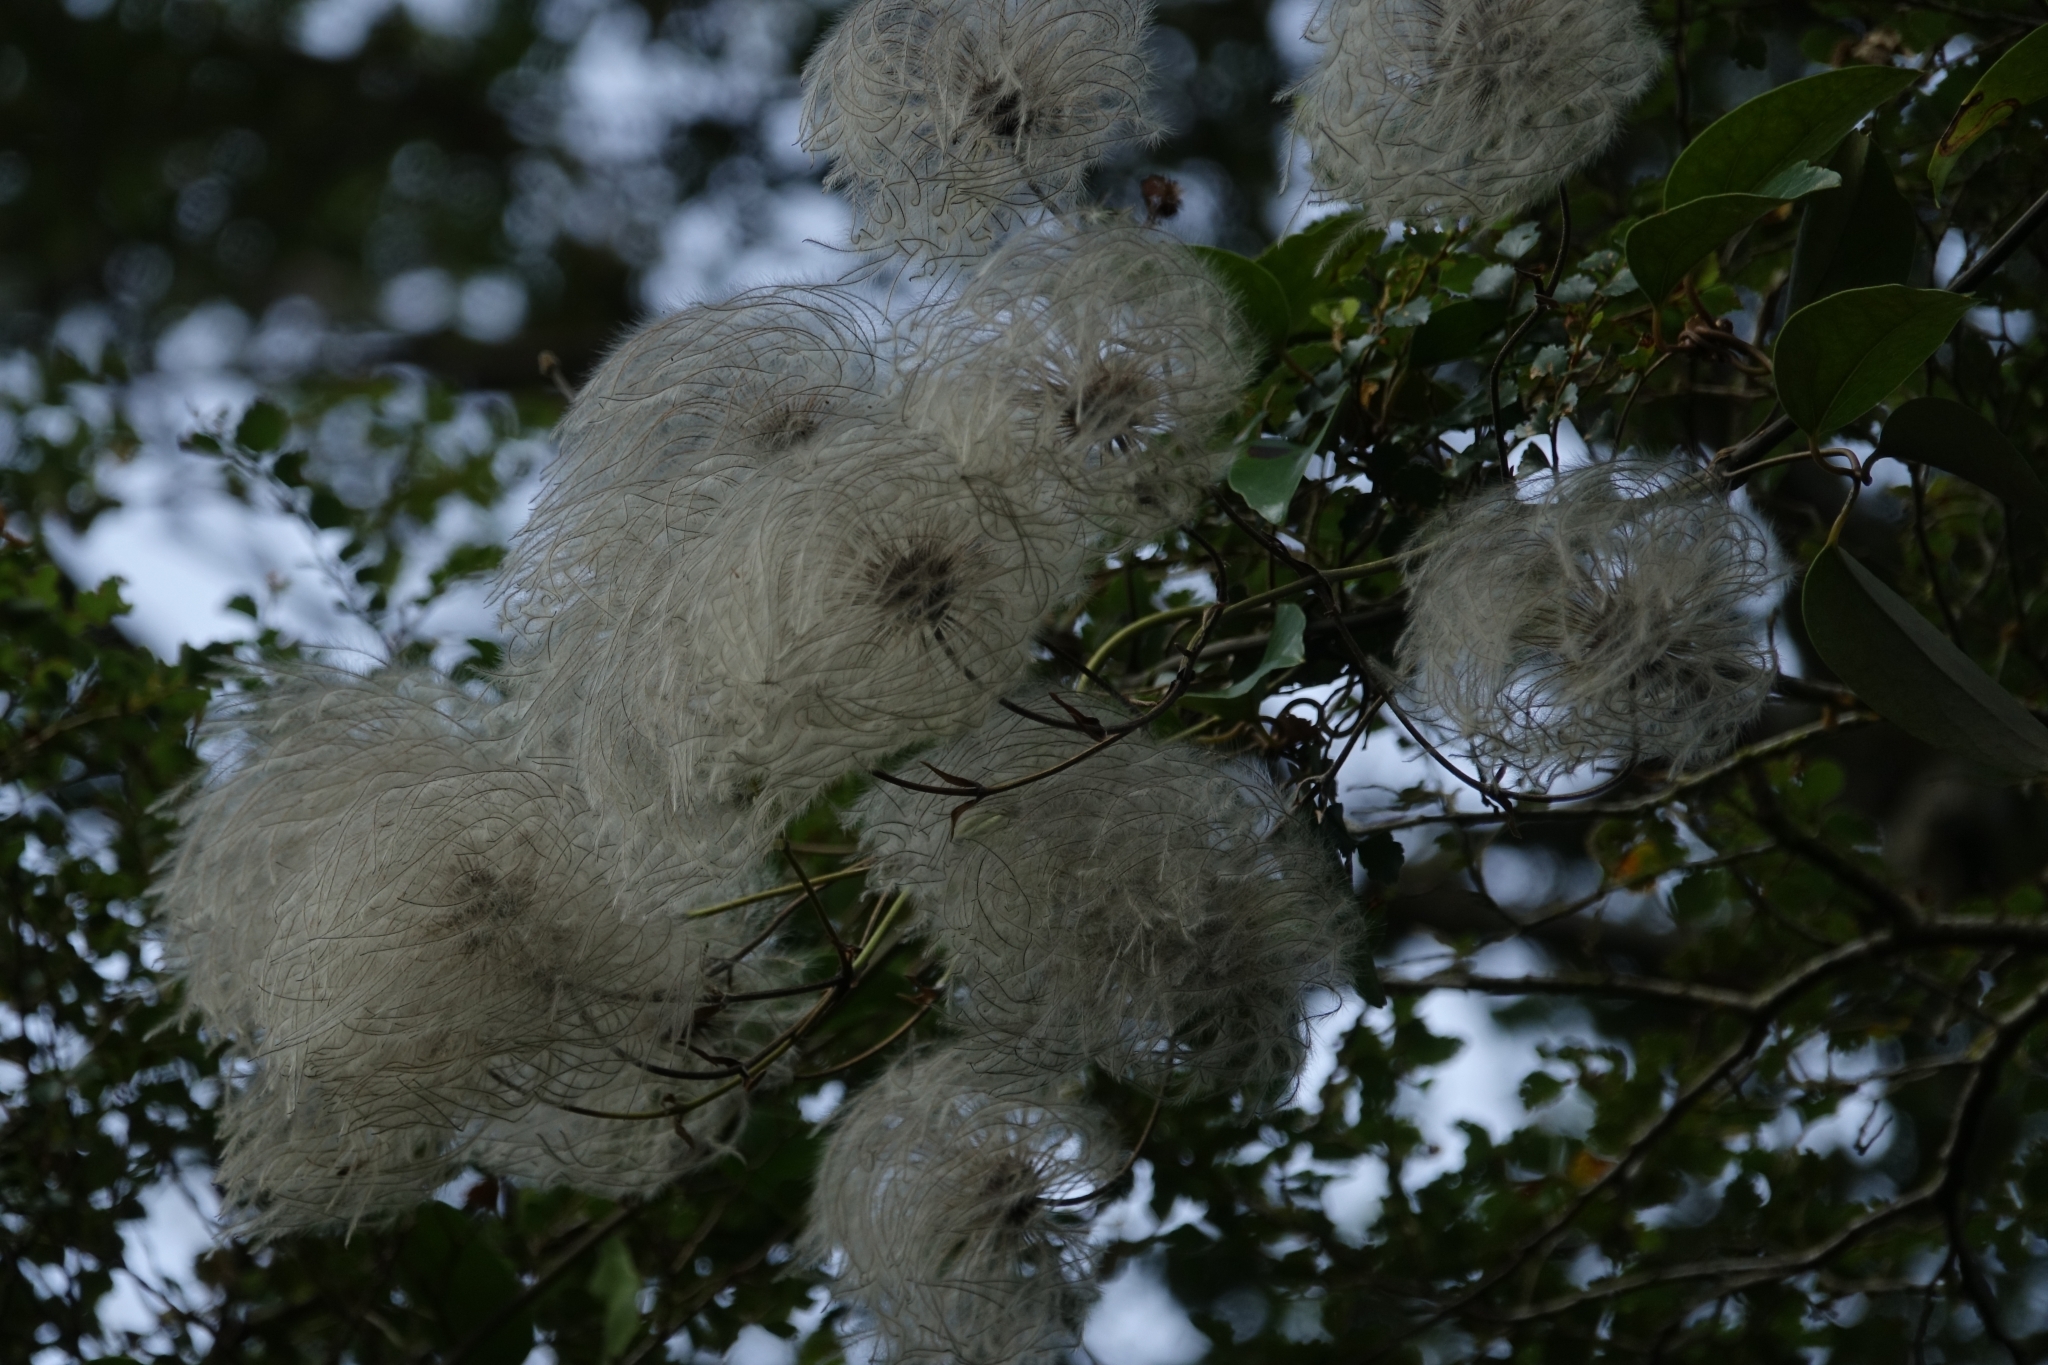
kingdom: Plantae
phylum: Tracheophyta
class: Magnoliopsida
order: Ranunculales
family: Ranunculaceae
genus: Clematis
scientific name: Clematis paniculata
